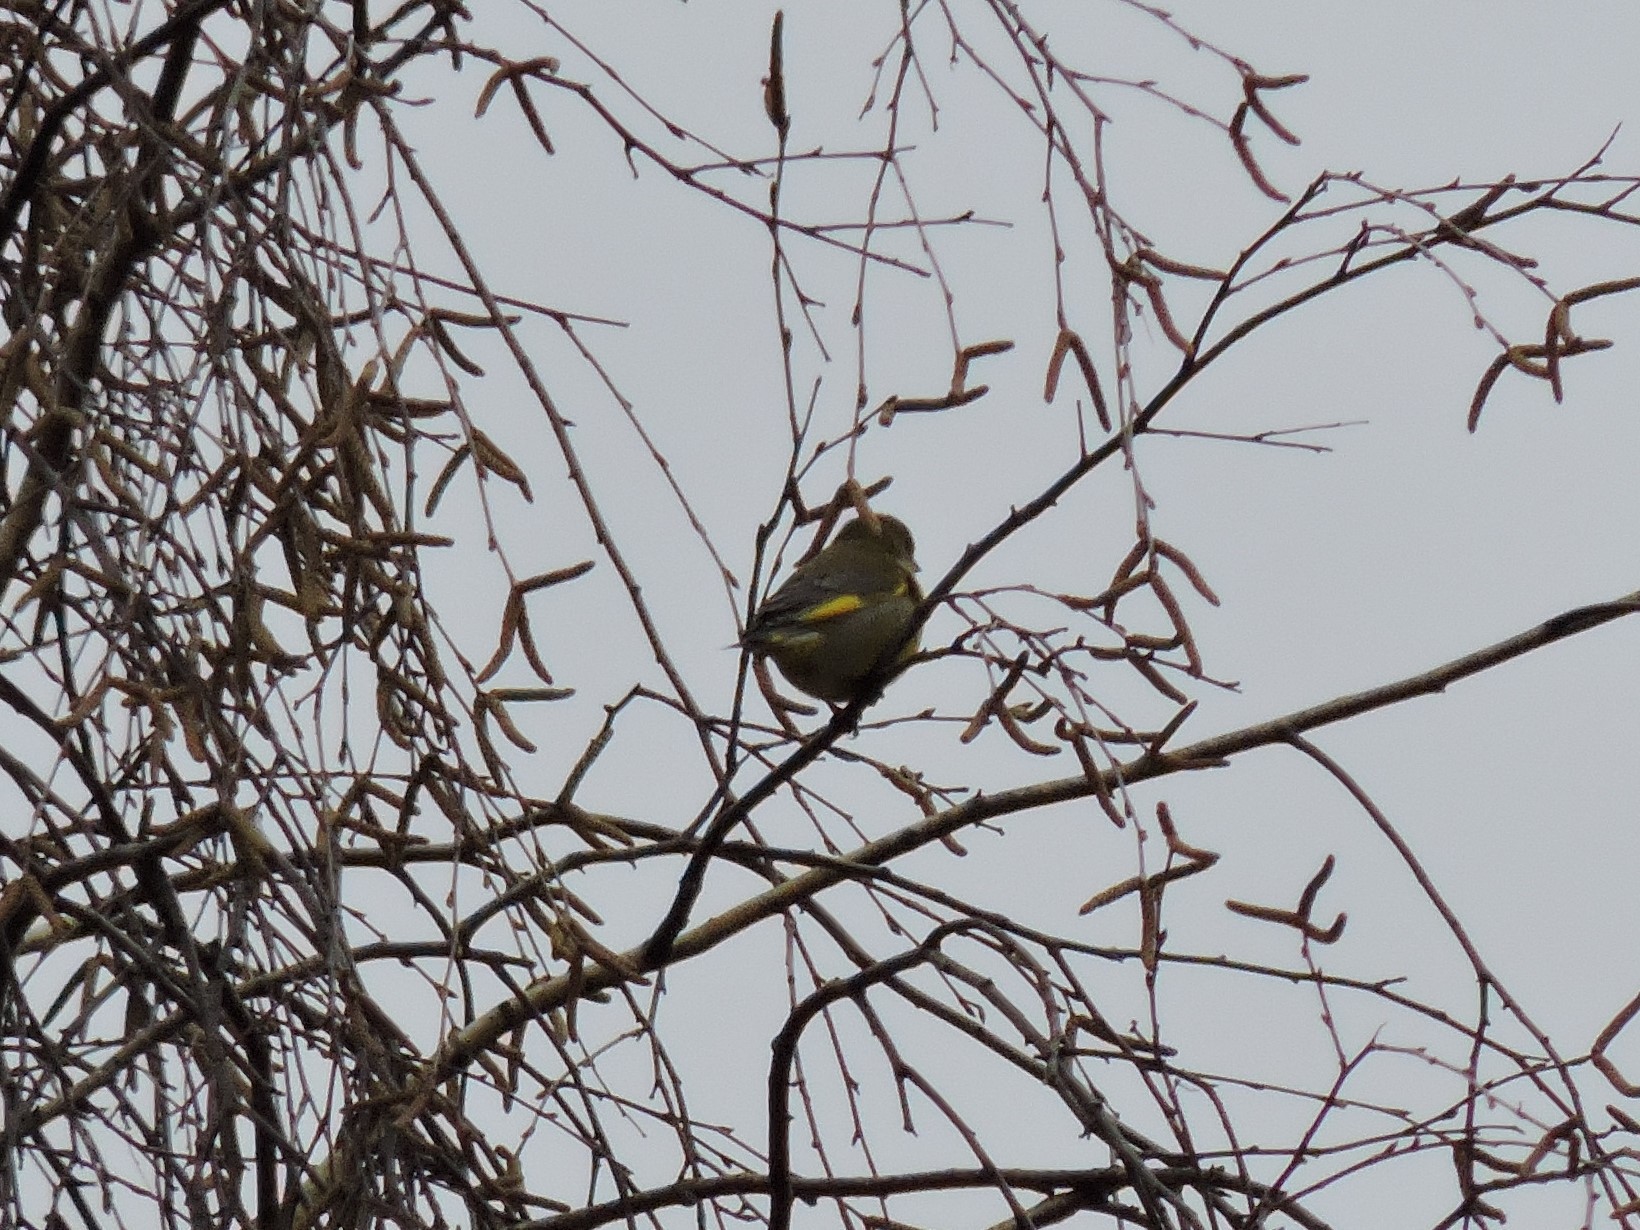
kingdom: Plantae
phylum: Tracheophyta
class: Liliopsida
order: Poales
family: Poaceae
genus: Chloris
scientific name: Chloris chloris
